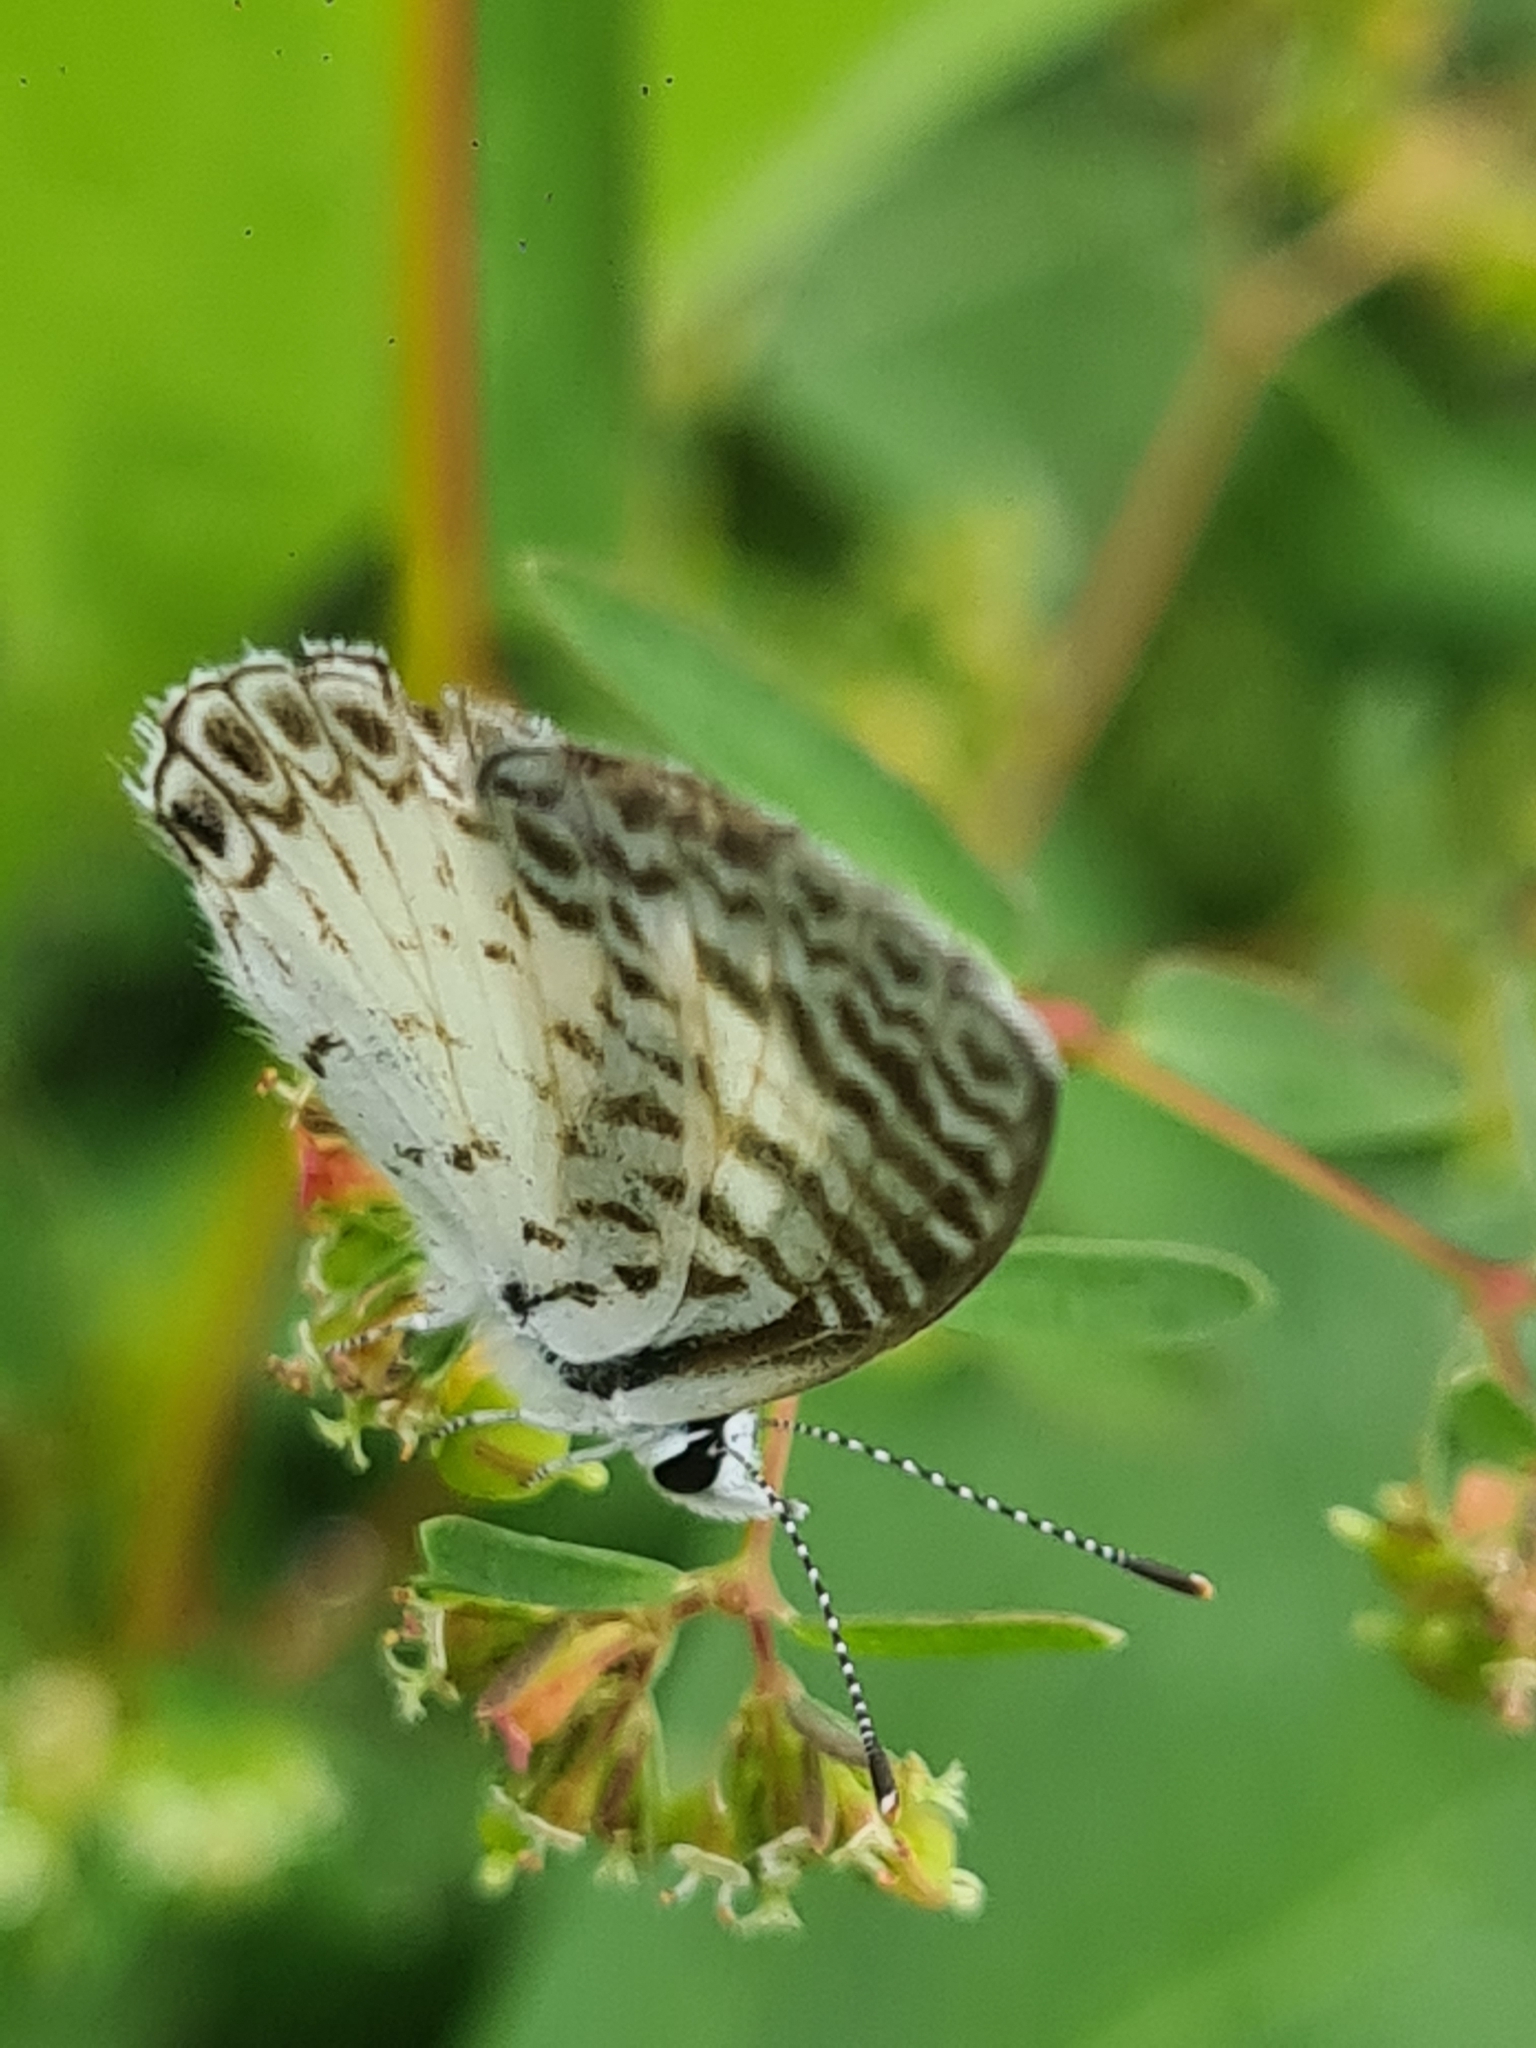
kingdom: Animalia
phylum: Arthropoda
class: Insecta
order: Lepidoptera
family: Lycaenidae
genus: Leptotes
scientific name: Leptotes cassius
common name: Cassius blue
